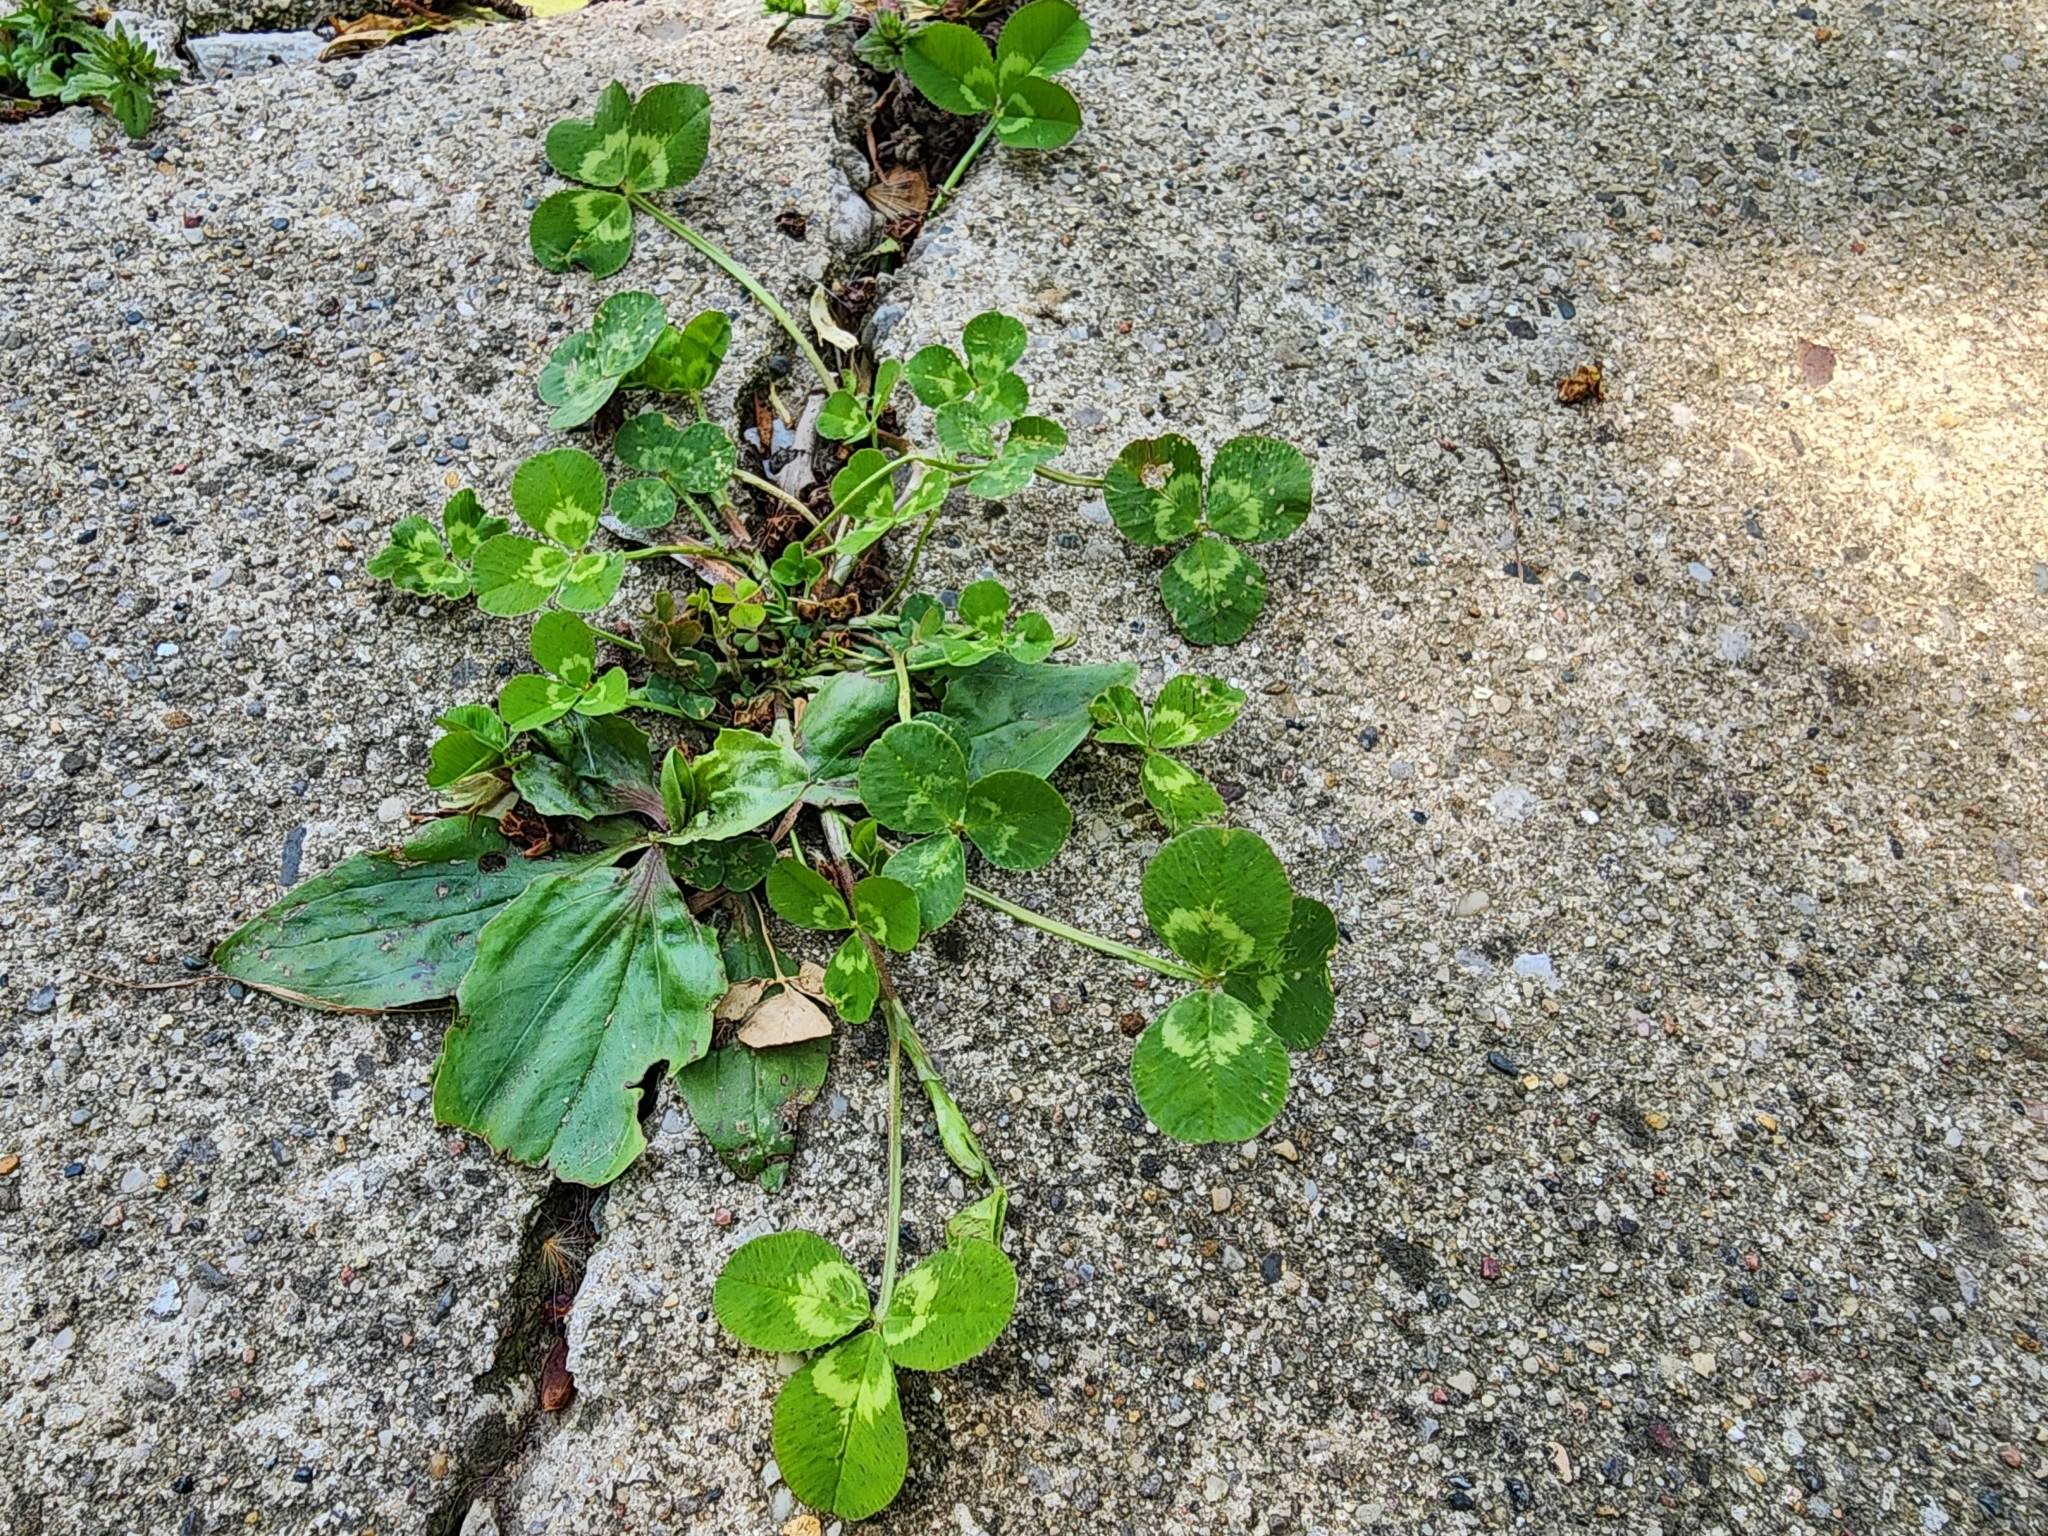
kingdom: Plantae
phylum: Tracheophyta
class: Magnoliopsida
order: Fabales
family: Fabaceae
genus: Trifolium
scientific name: Trifolium repens
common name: White clover
